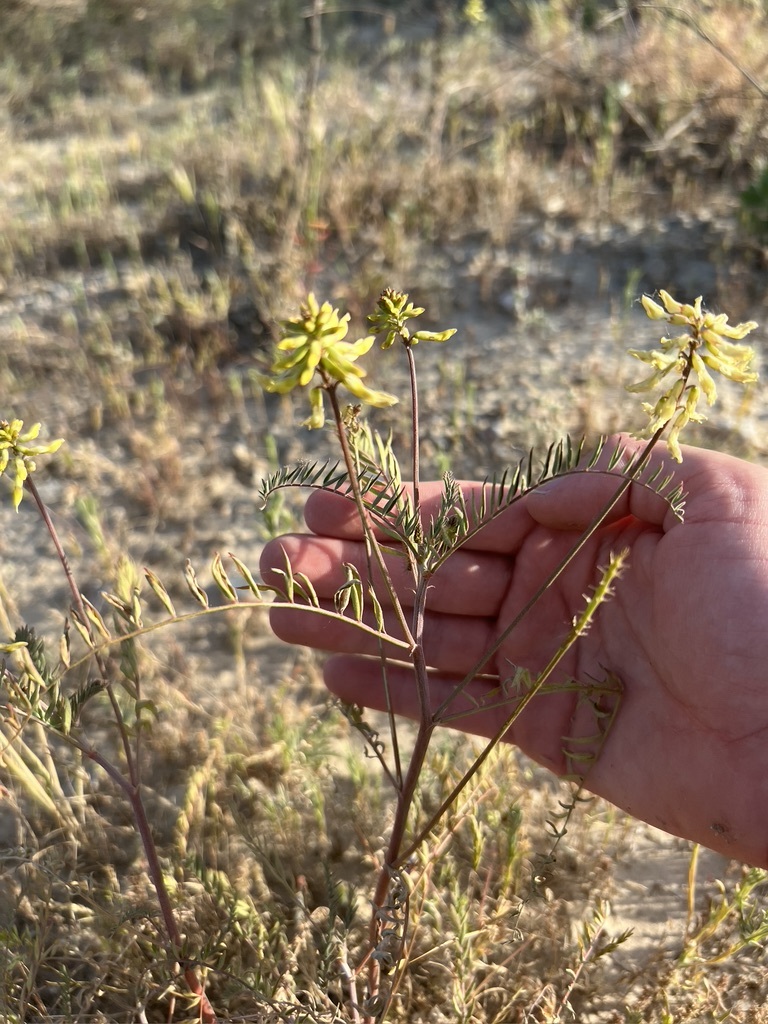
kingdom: Plantae
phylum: Tracheophyta
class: Magnoliopsida
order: Fabales
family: Fabaceae
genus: Astragalus
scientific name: Astragalus trichopodus
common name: Santa barbara milk-vetch
